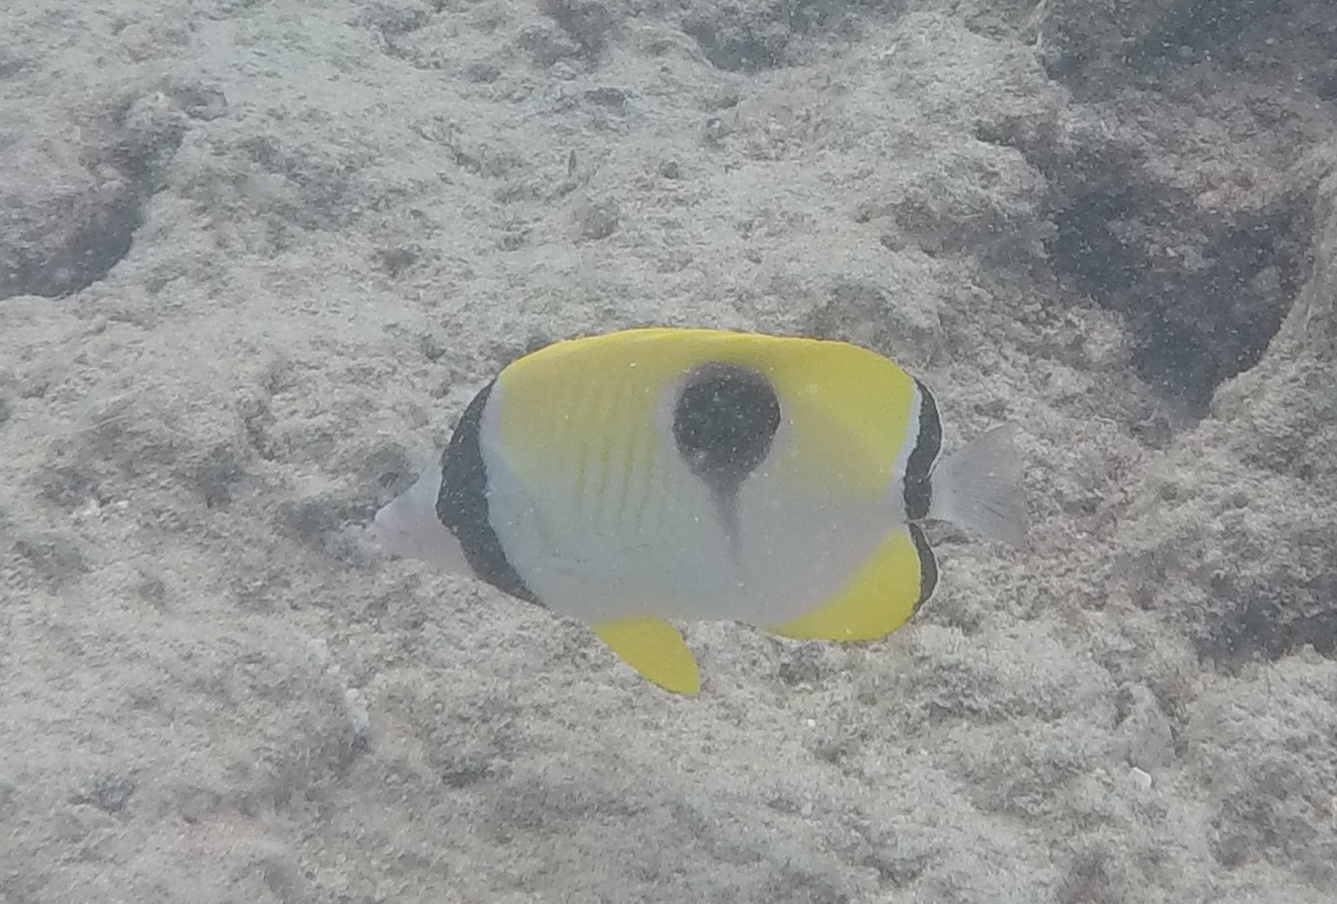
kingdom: Animalia
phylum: Chordata
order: Perciformes
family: Chaetodontidae
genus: Chaetodon
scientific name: Chaetodon unimaculatus
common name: Teardrop butterflyfish
